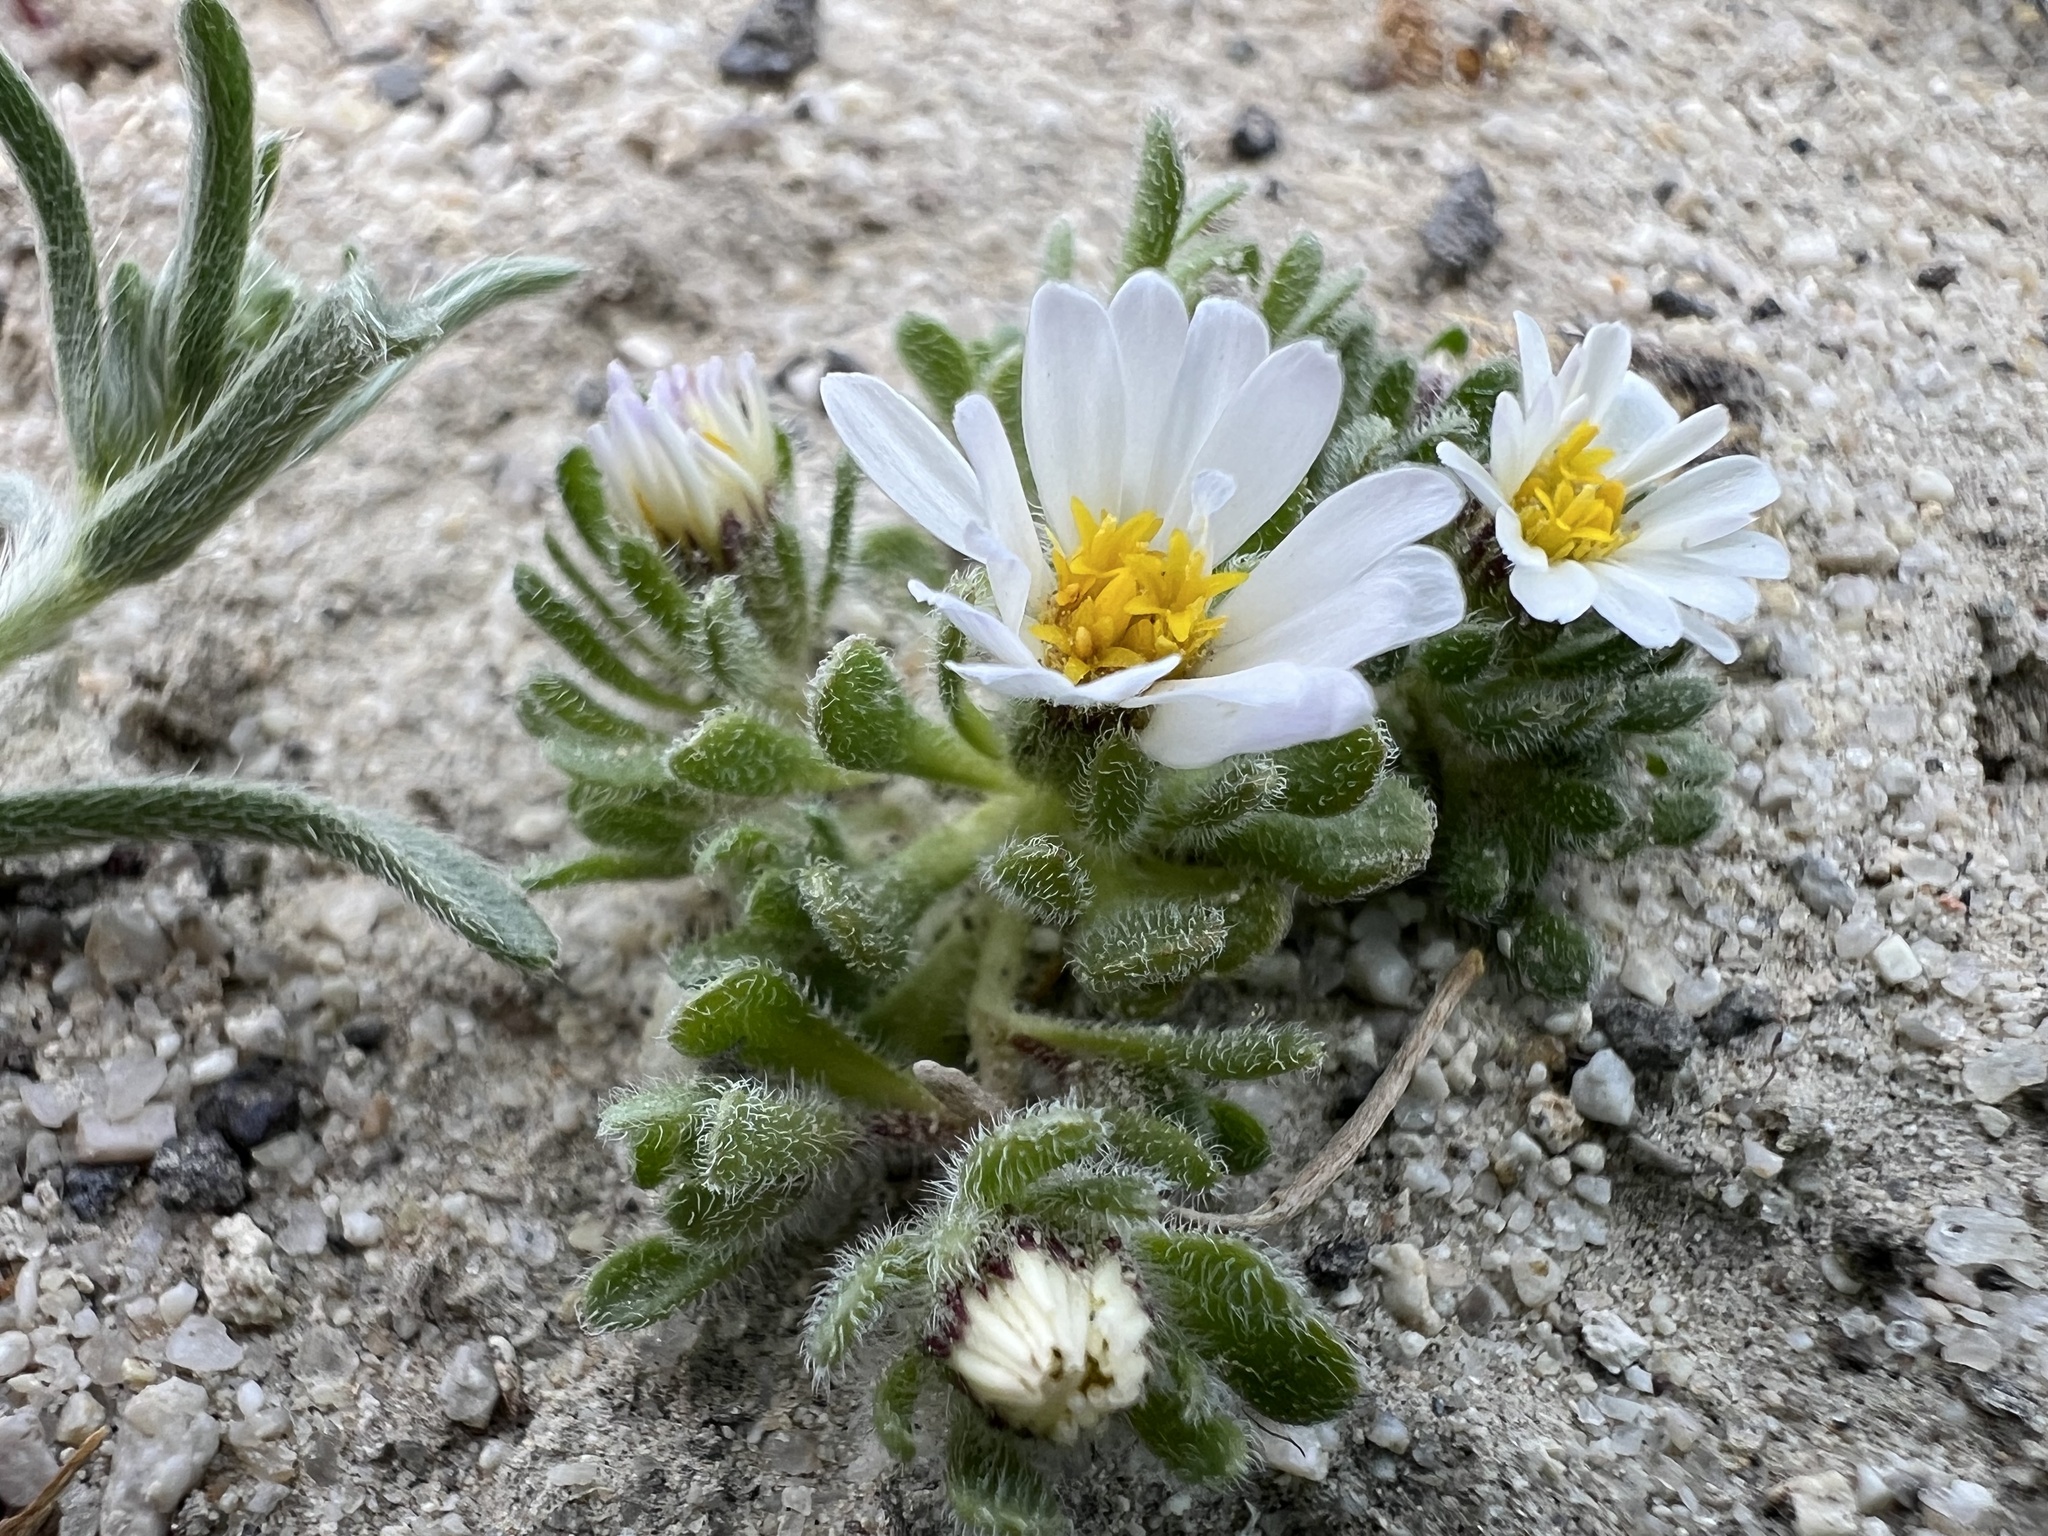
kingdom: Plantae
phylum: Tracheophyta
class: Magnoliopsida
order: Asterales
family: Asteraceae
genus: Monoptilon
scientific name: Monoptilon bellioides
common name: Bristly desertstar
